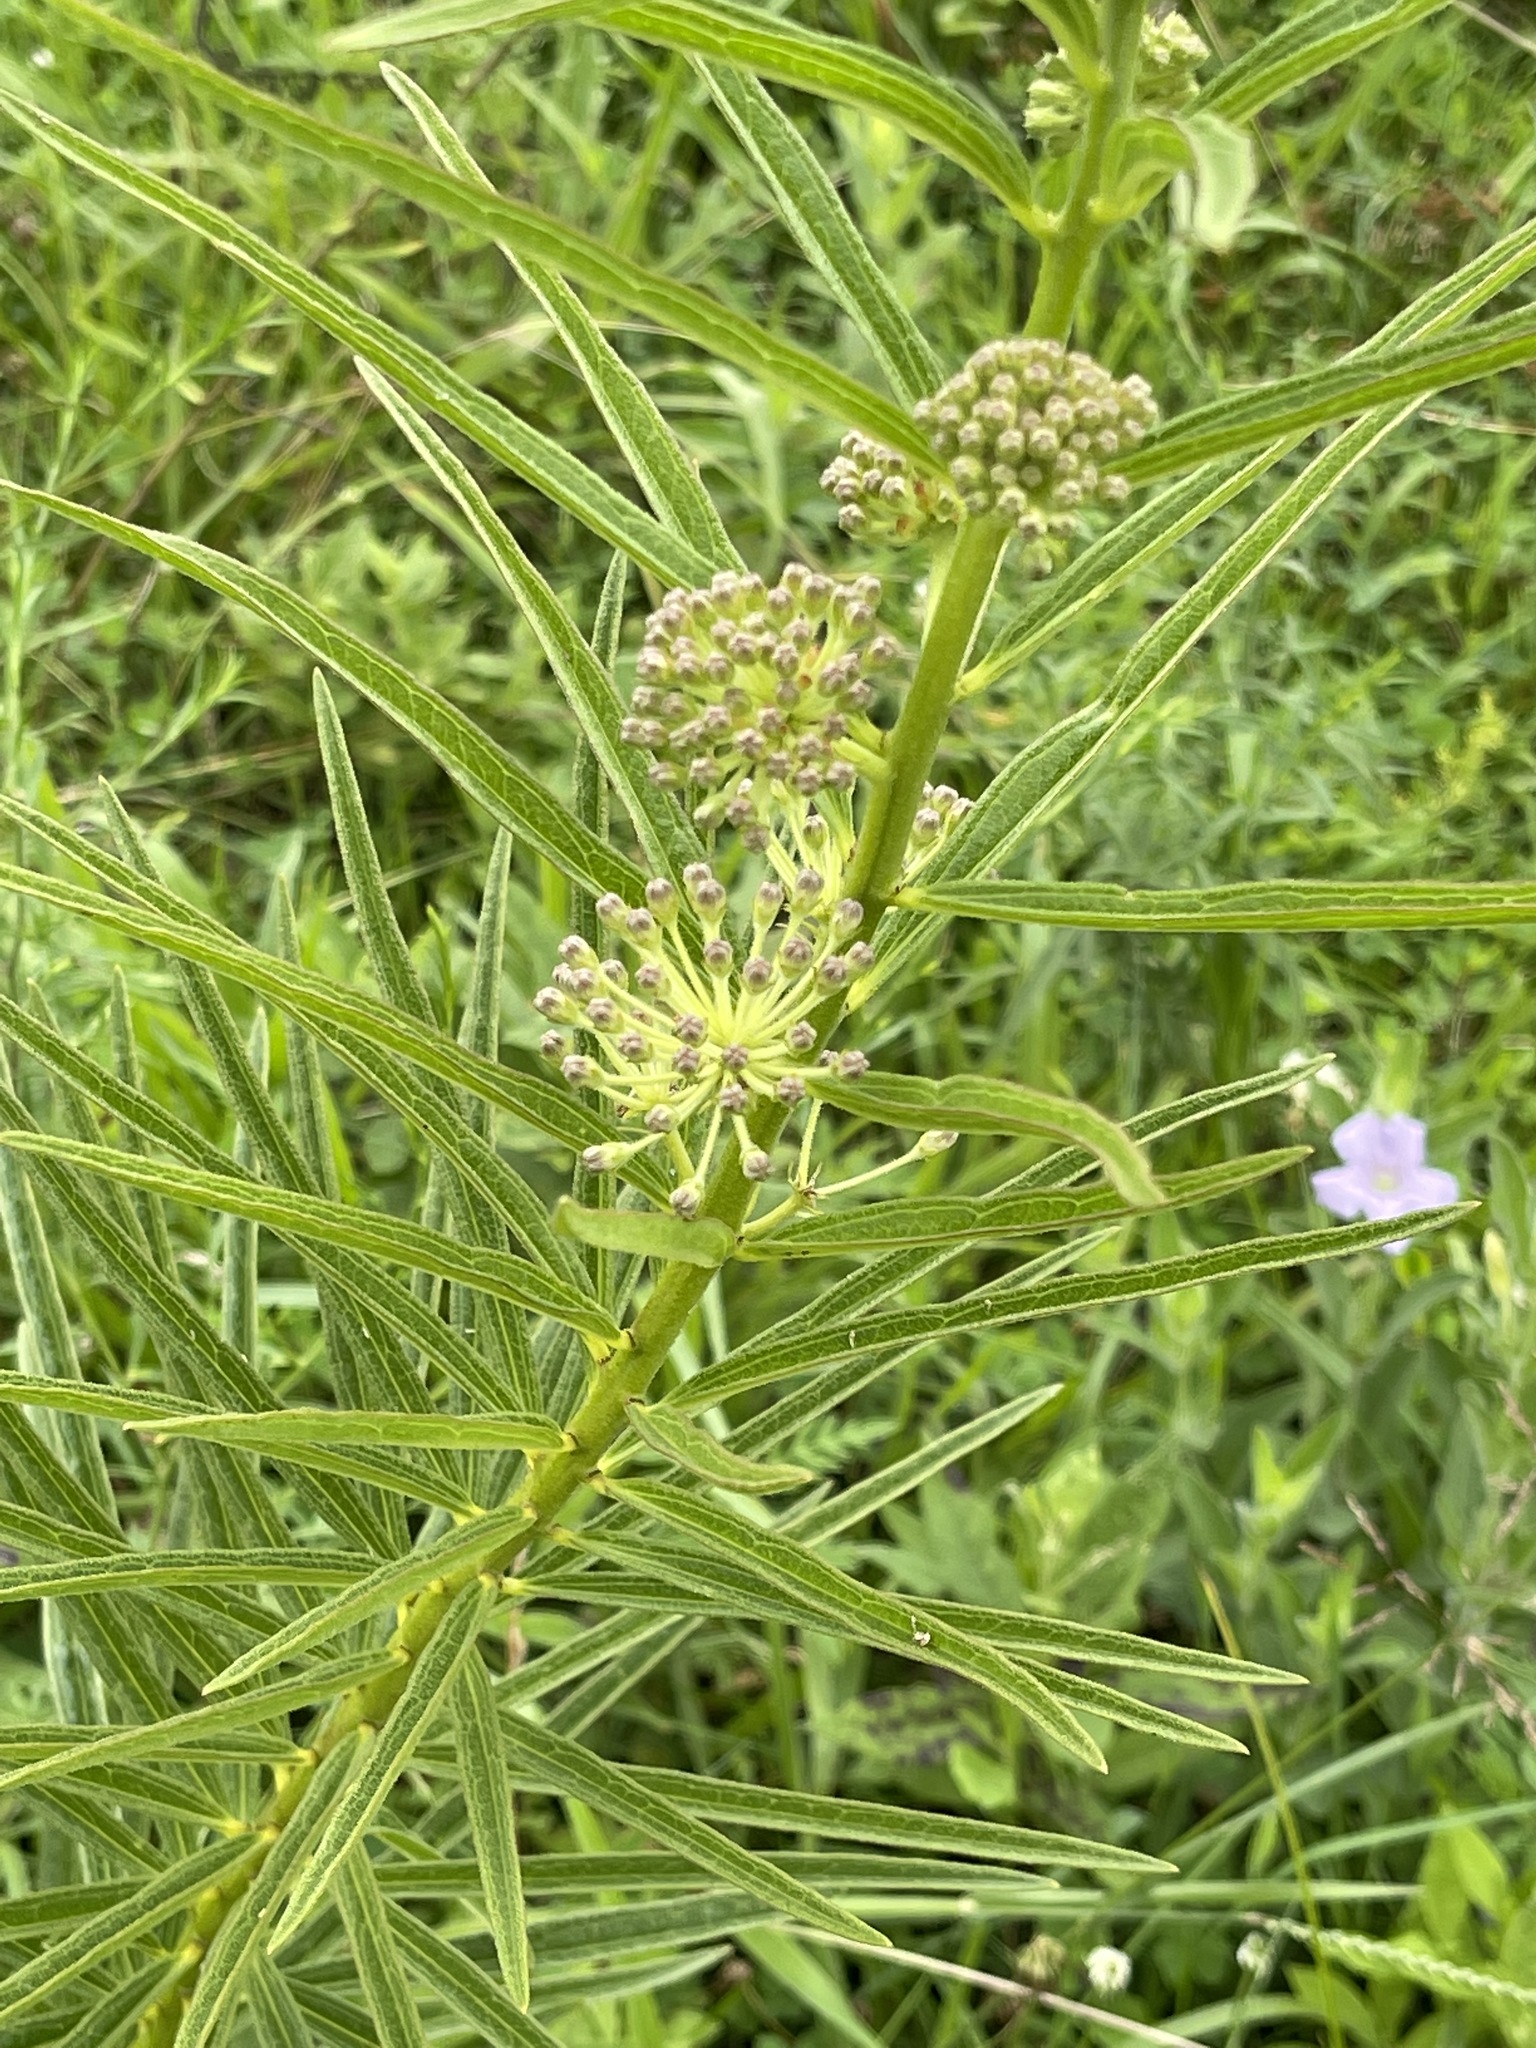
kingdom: Plantae
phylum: Tracheophyta
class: Magnoliopsida
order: Gentianales
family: Apocynaceae
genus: Asclepias
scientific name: Asclepias hirtella
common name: Prairie milkweed
